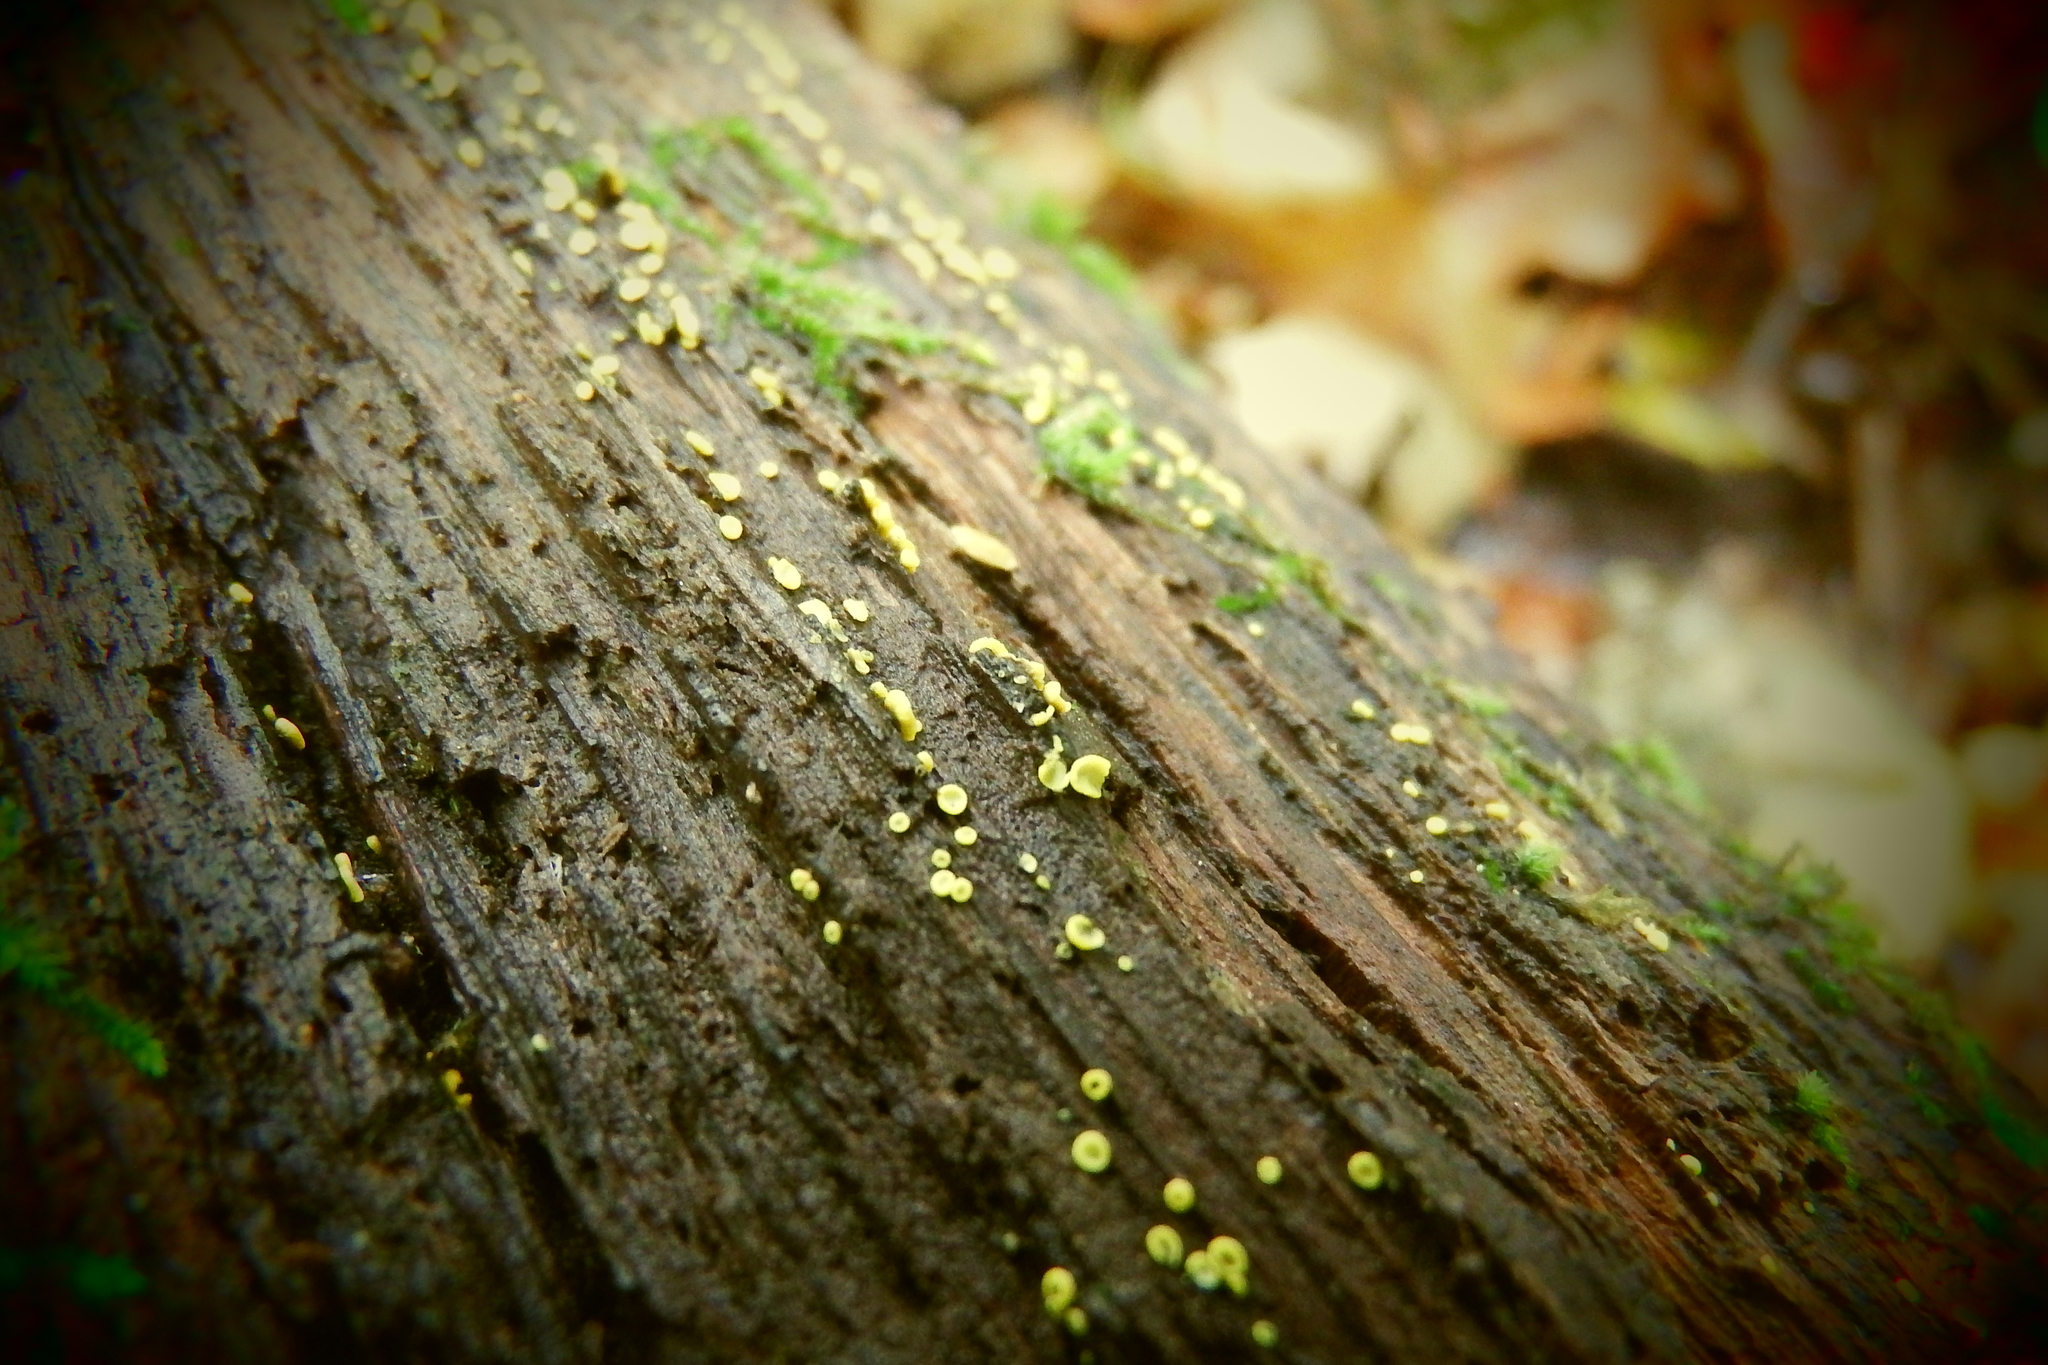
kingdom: Fungi
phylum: Ascomycota
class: Leotiomycetes
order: Helotiales
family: Pezizellaceae
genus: Calycina
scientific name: Calycina citrina
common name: Yellow fairy cups
